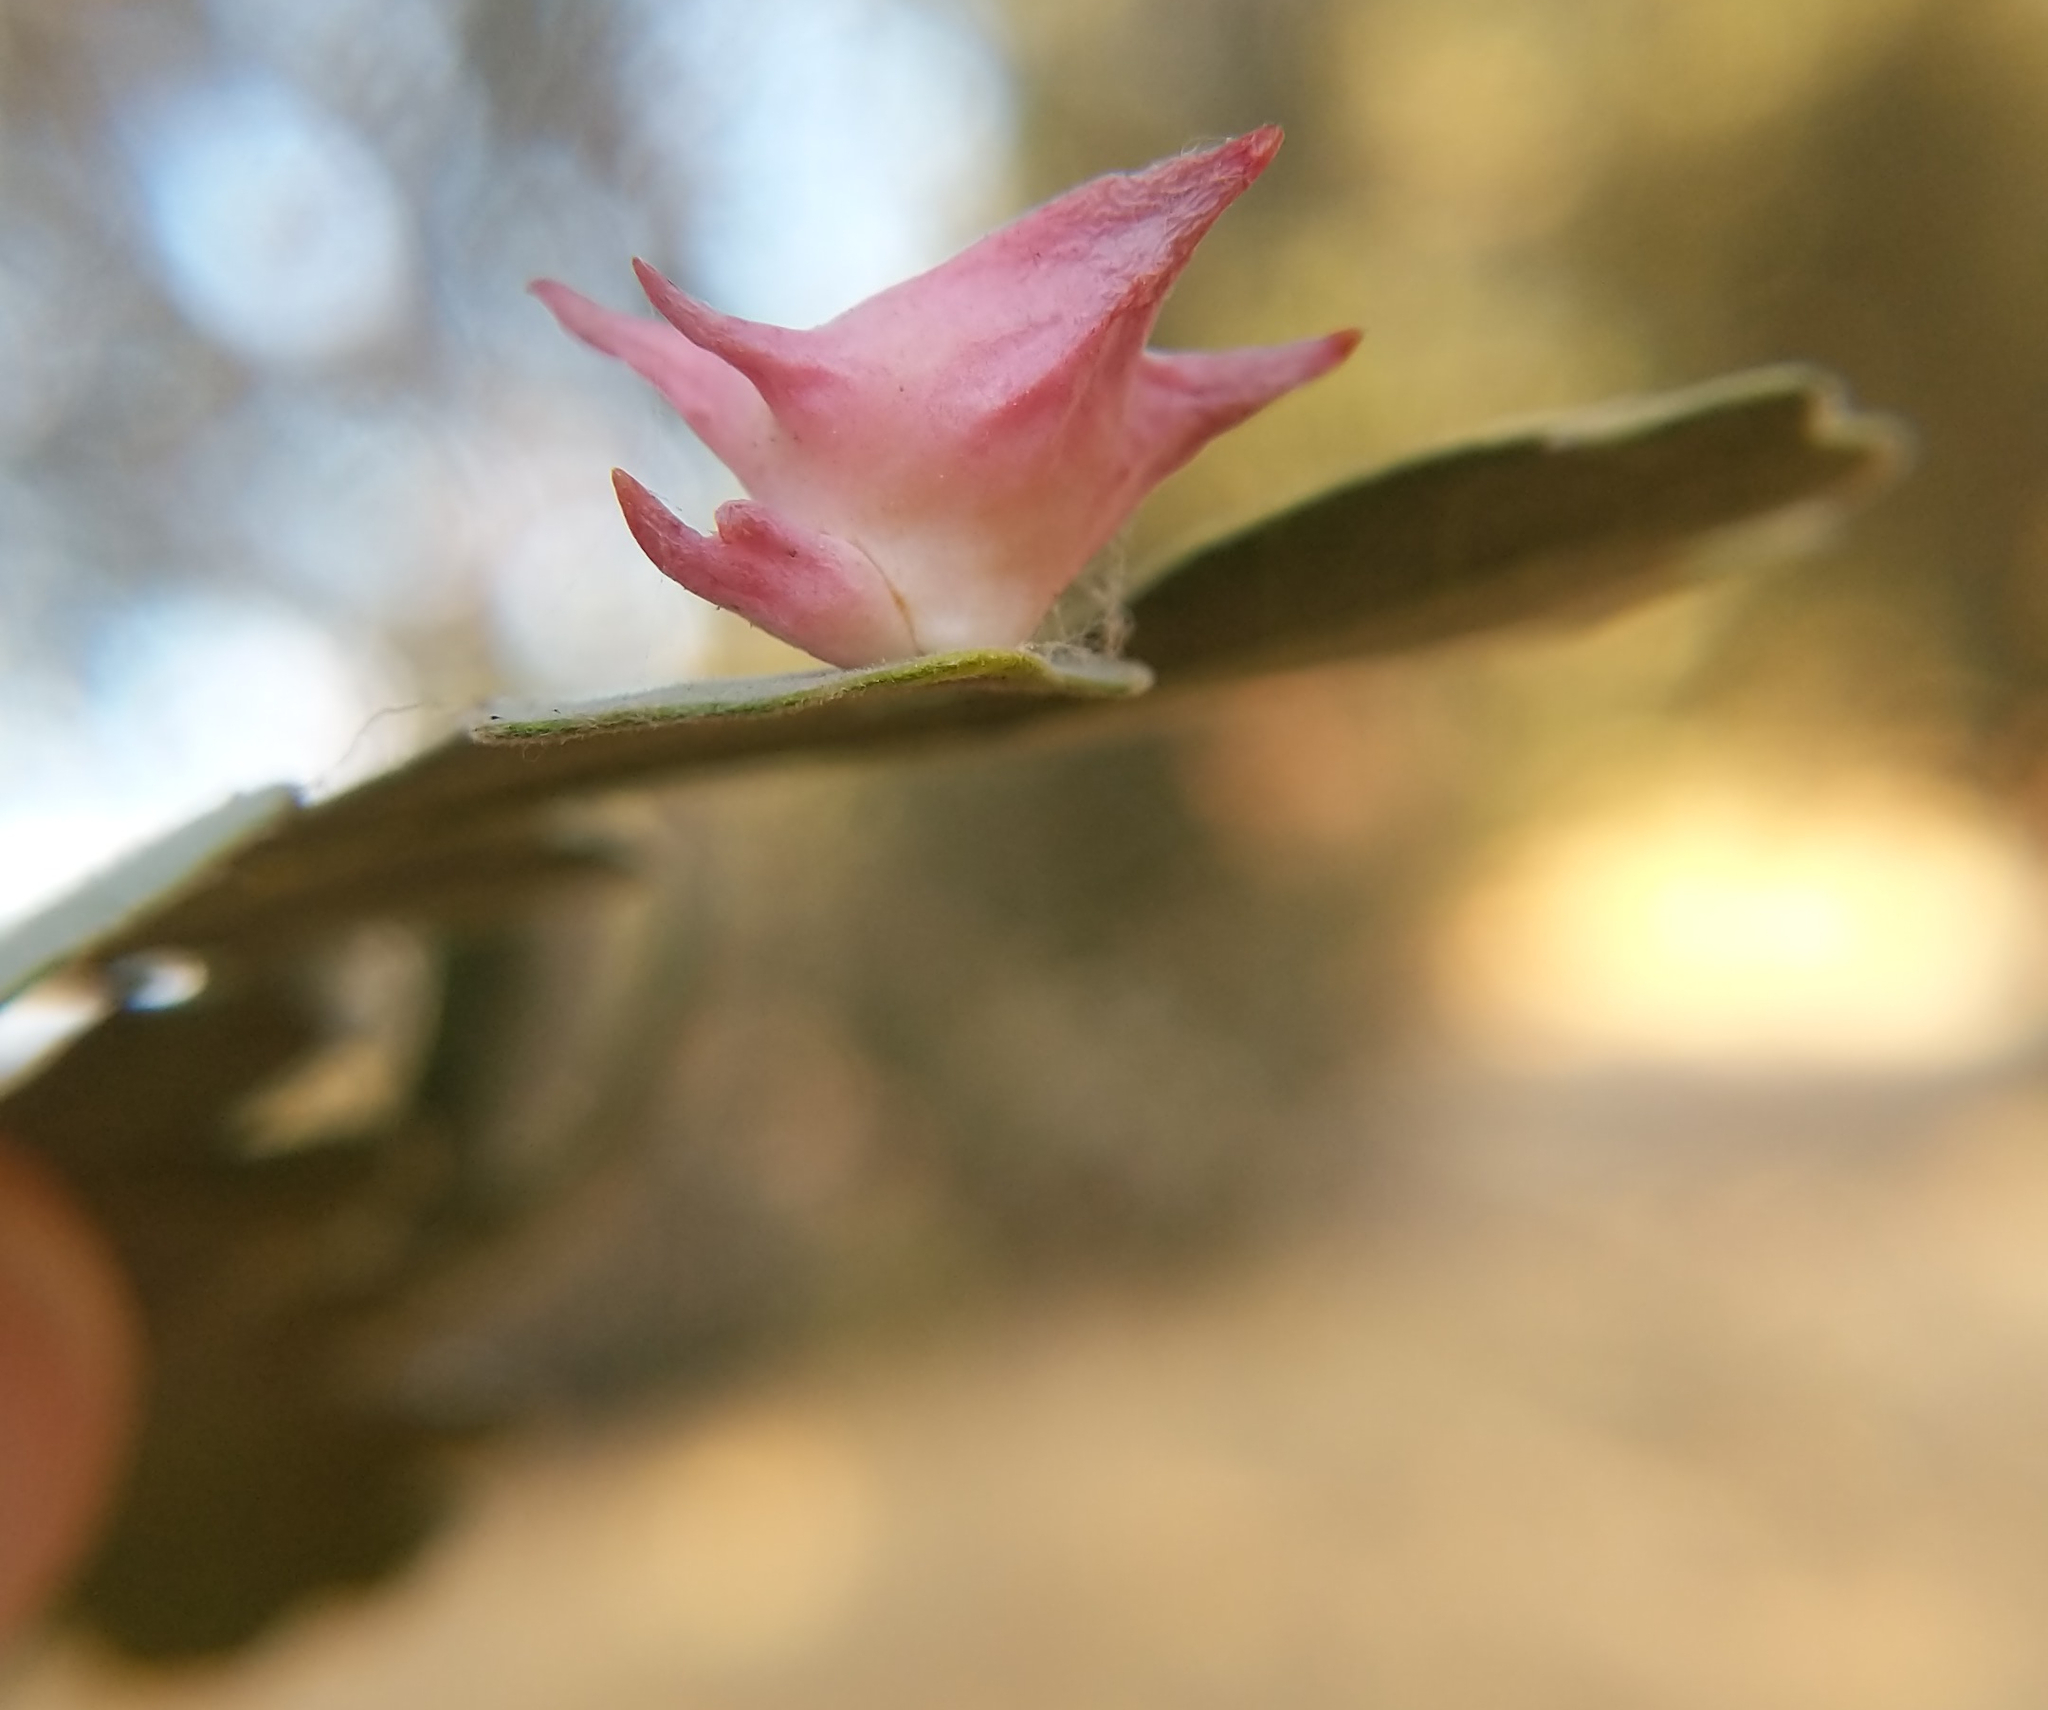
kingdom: Animalia
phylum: Arthropoda
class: Insecta
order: Hymenoptera
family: Cynipidae
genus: Cynips
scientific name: Cynips douglasi
